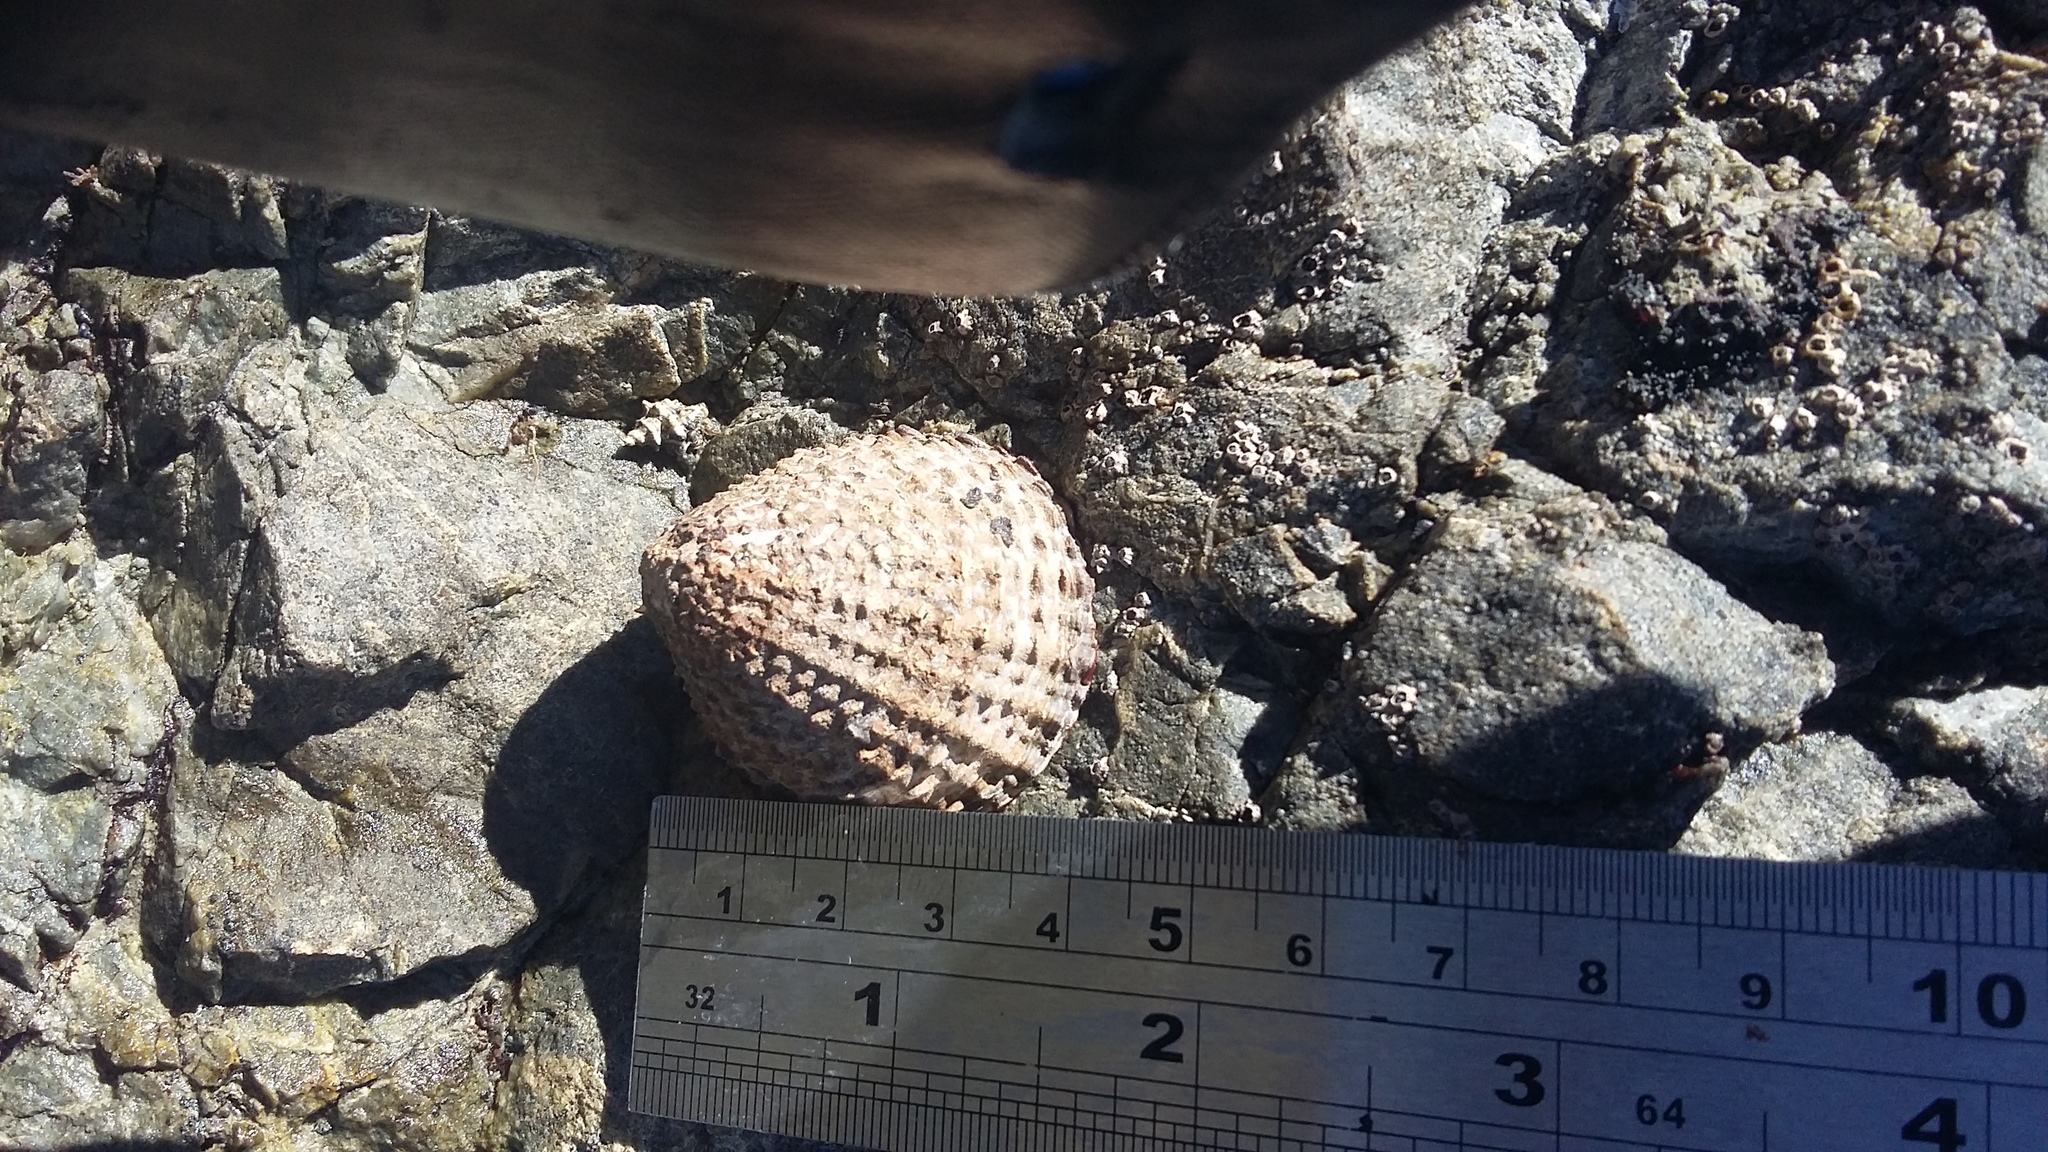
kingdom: Animalia
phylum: Mollusca
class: Gastropoda
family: Nacellidae
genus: Cellana
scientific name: Cellana denticulata
